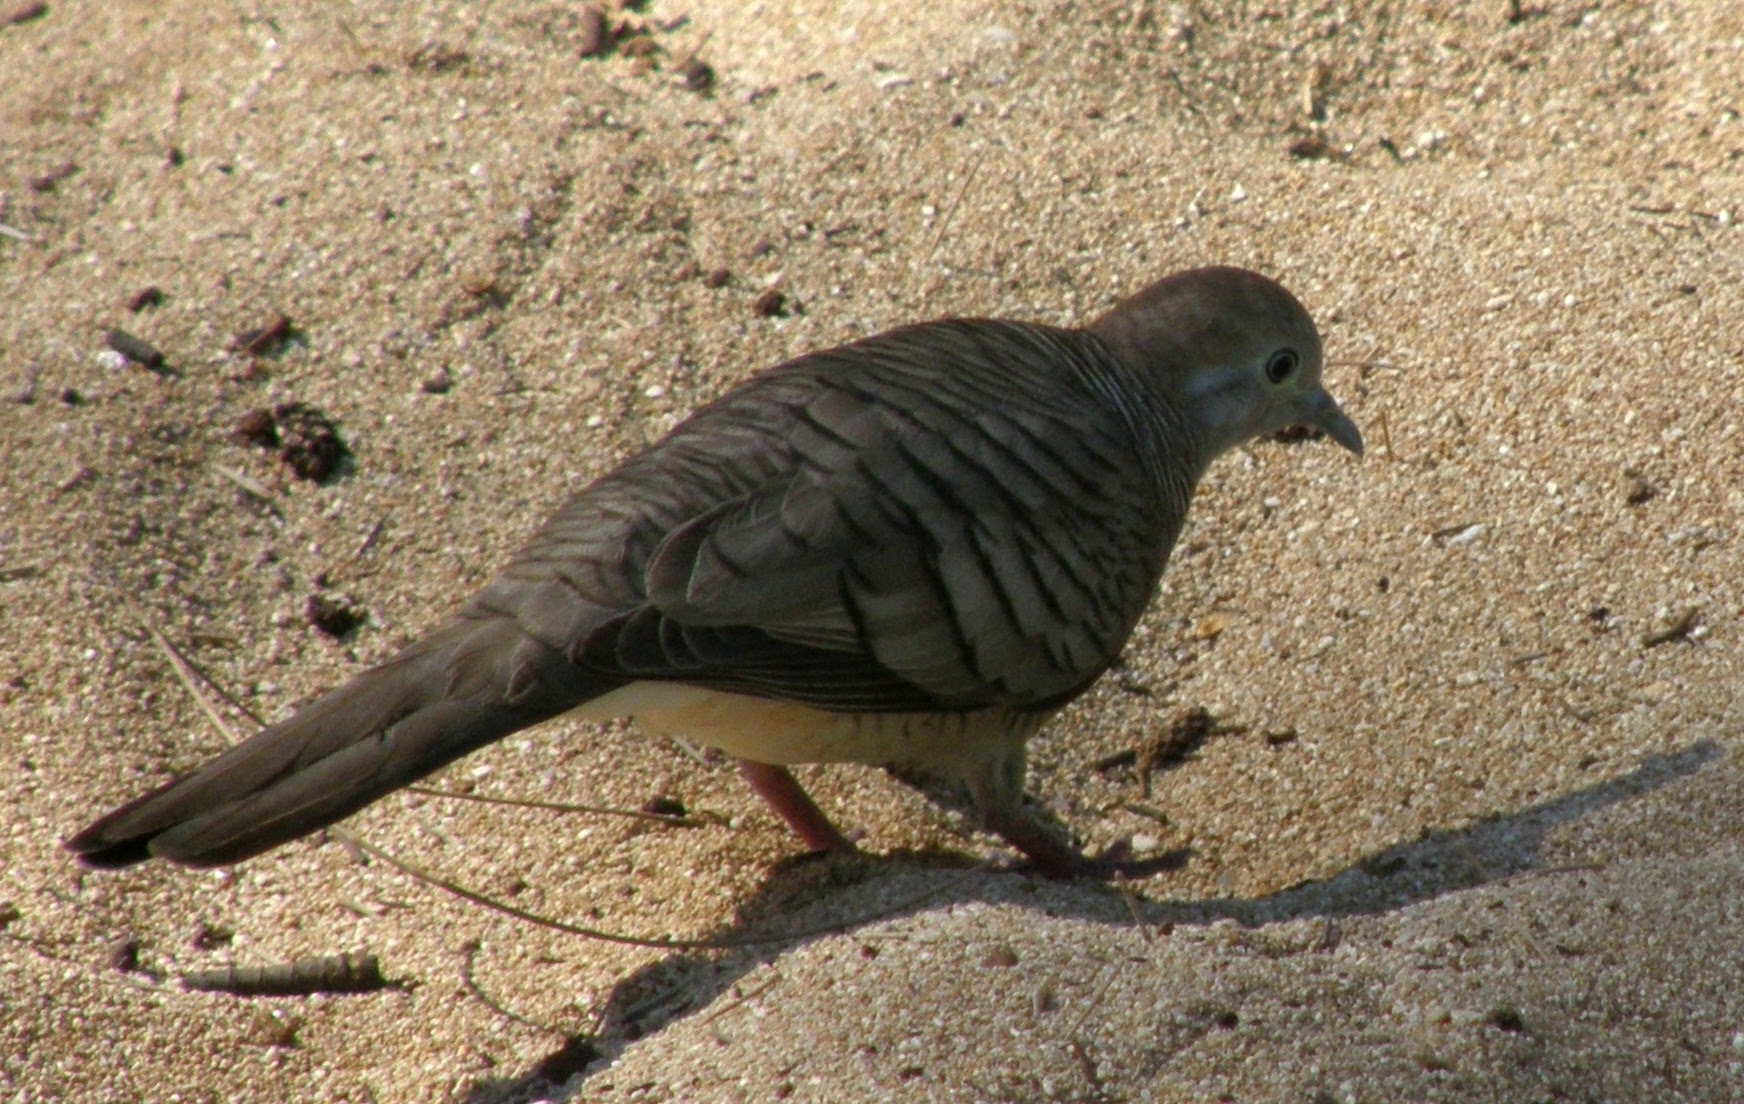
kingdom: Animalia
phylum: Chordata
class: Aves
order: Columbiformes
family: Columbidae
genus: Geopelia
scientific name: Geopelia striata
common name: Zebra dove
